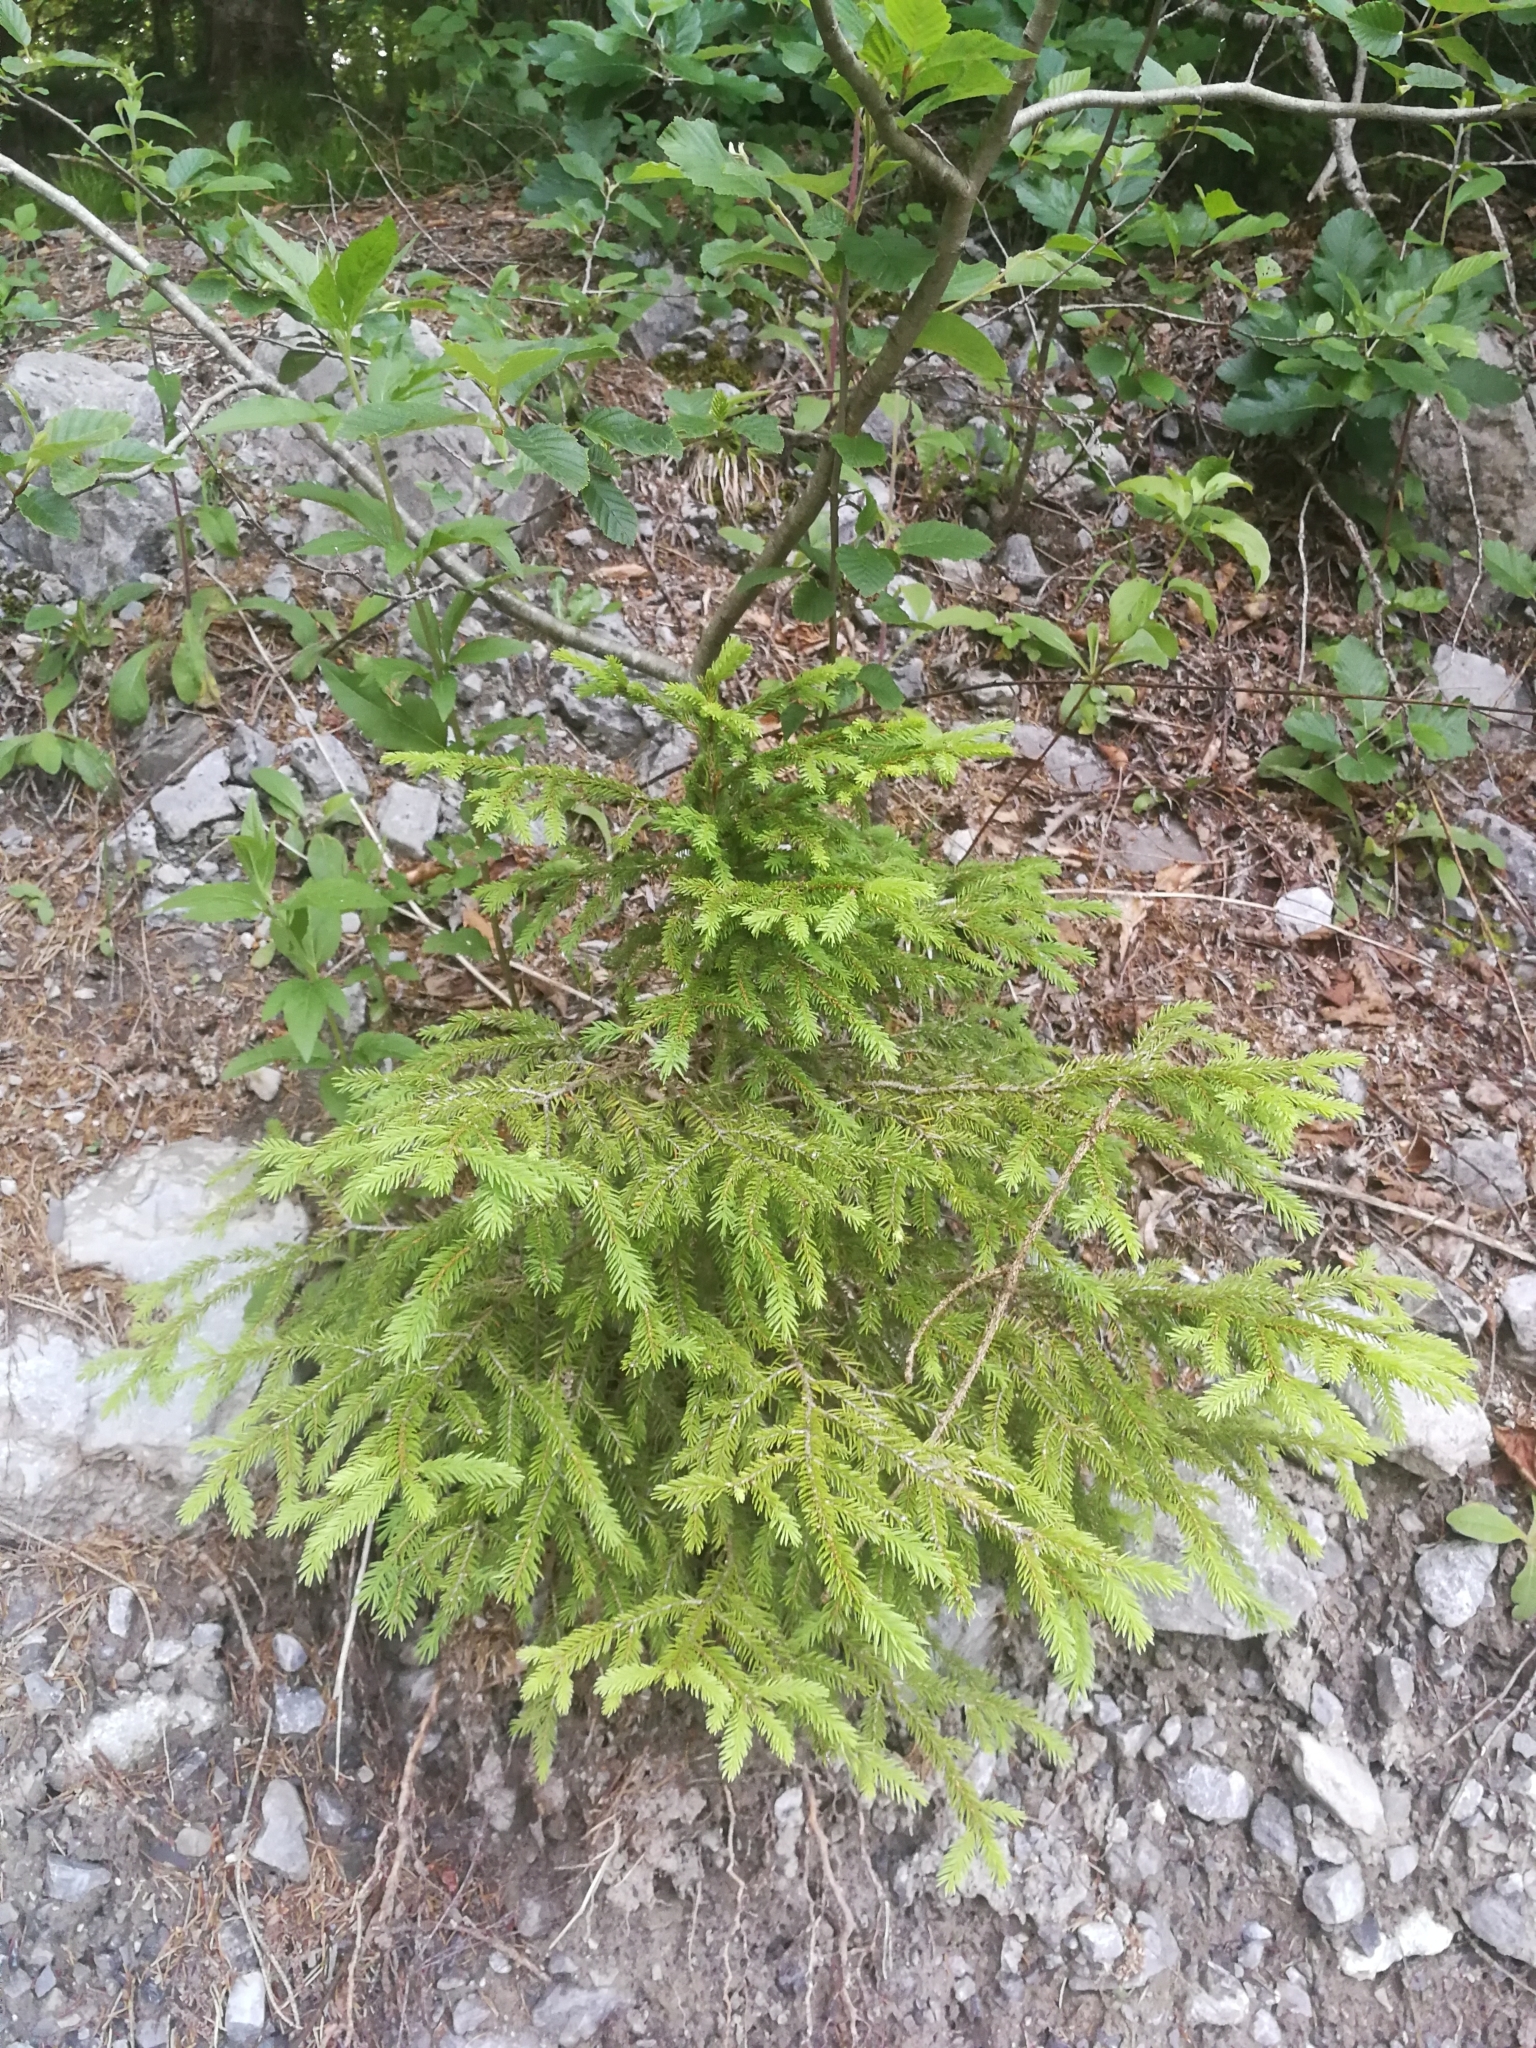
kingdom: Plantae
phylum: Tracheophyta
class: Pinopsida
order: Pinales
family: Pinaceae
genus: Picea
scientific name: Picea abies
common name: Norway spruce
